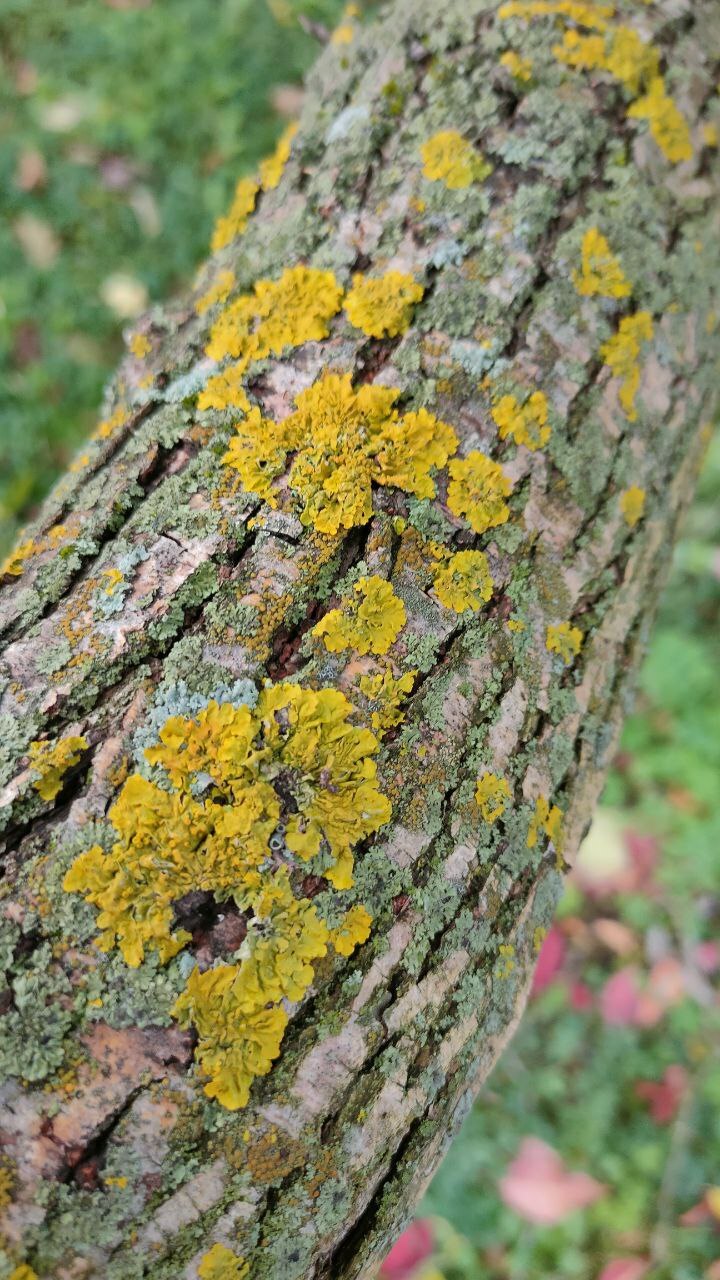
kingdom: Fungi
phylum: Ascomycota
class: Lecanoromycetes
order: Teloschistales
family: Teloschistaceae
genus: Xanthoria
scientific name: Xanthoria parietina
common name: Common orange lichen
